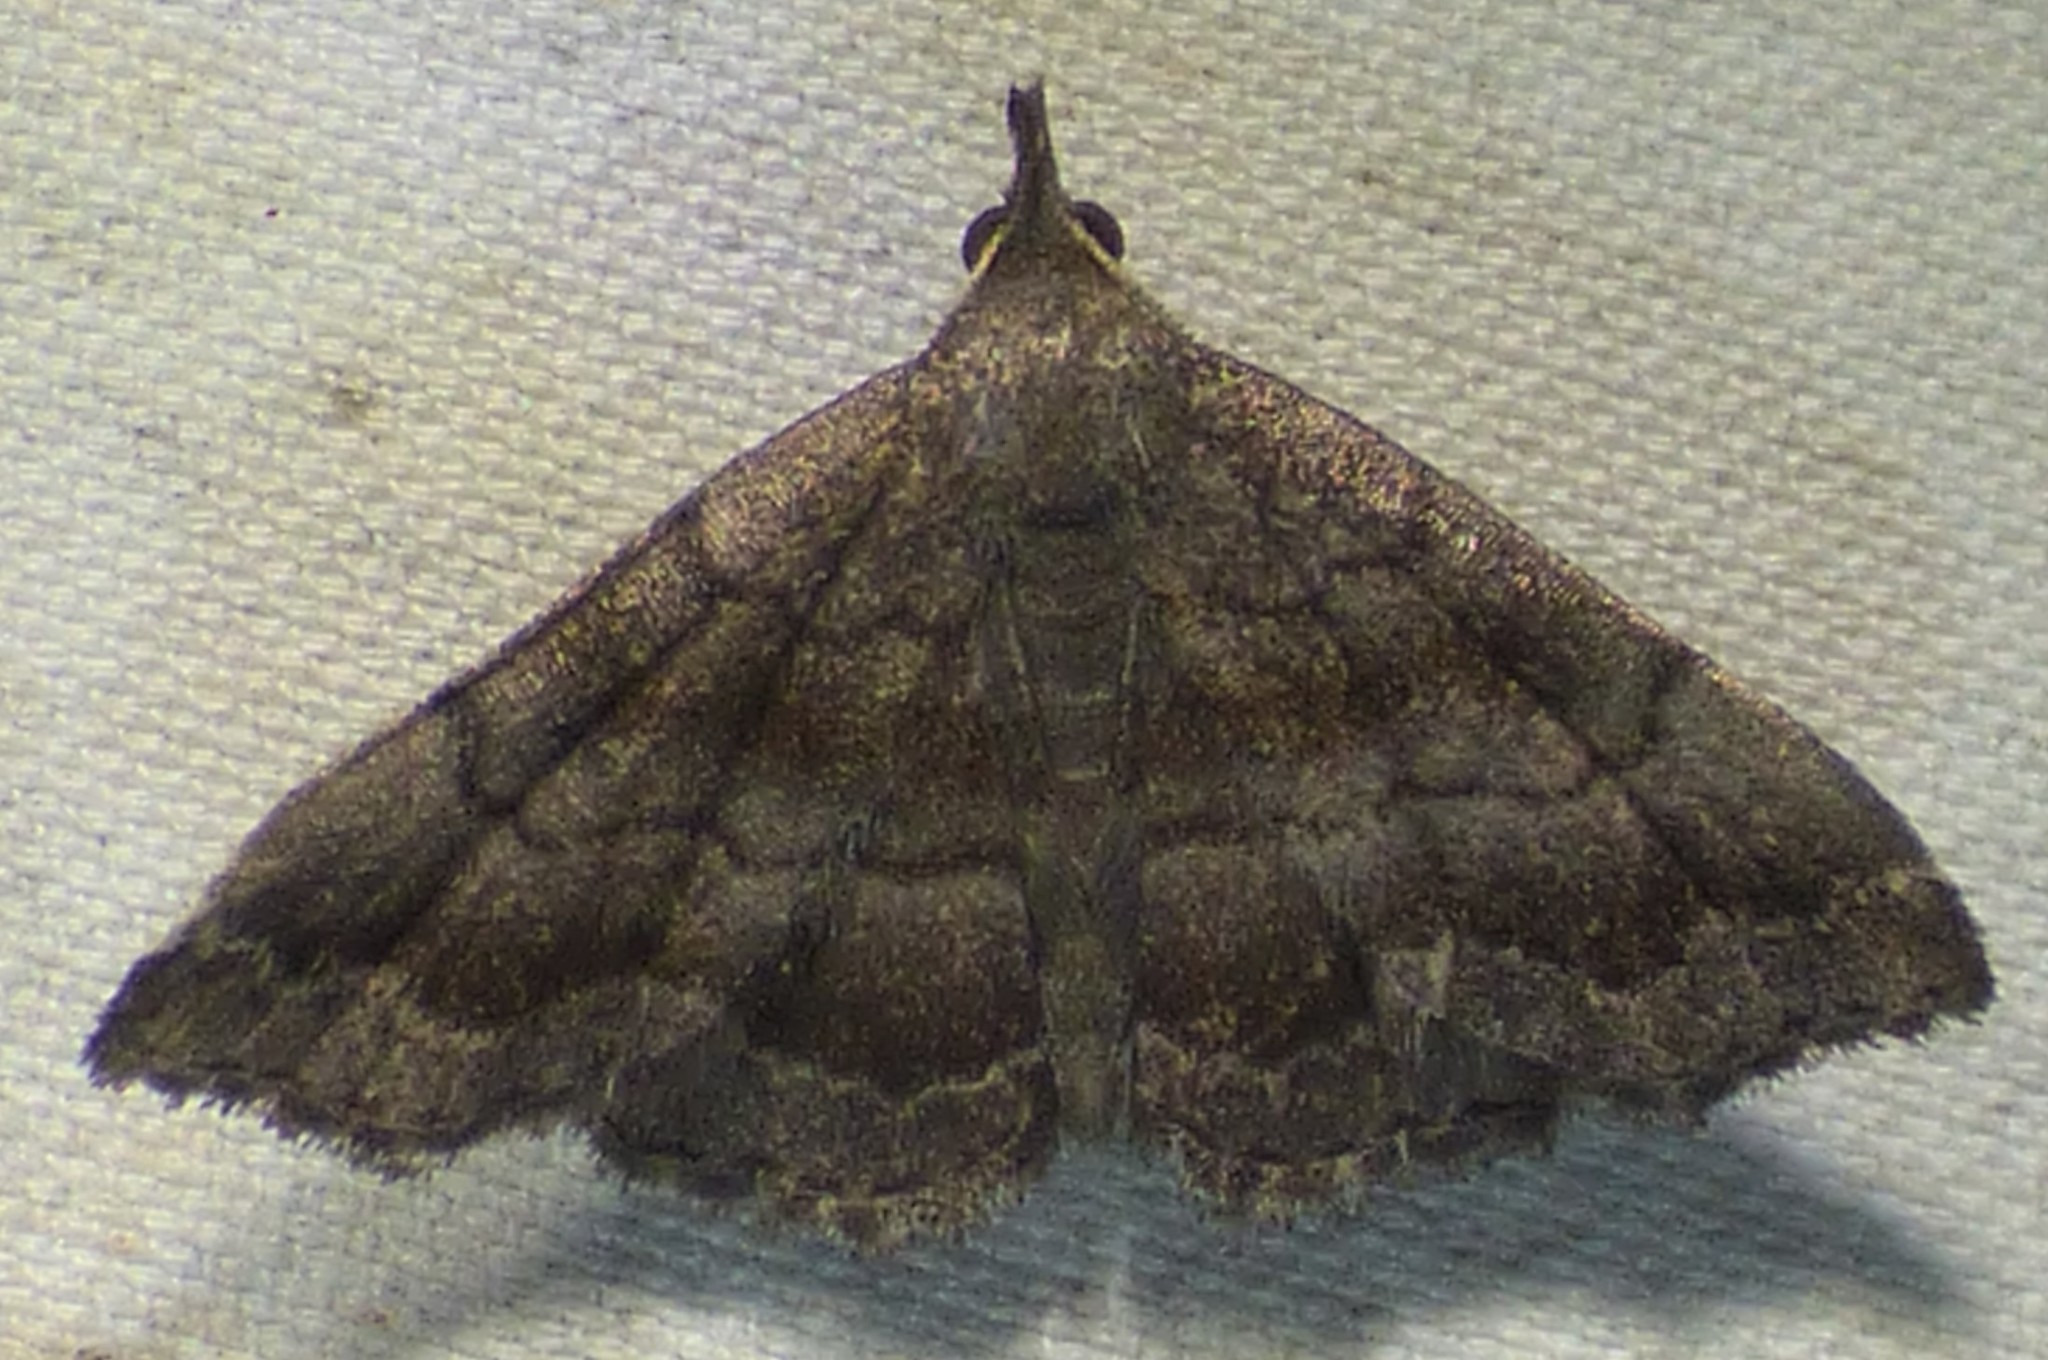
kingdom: Animalia
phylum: Arthropoda
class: Insecta
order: Lepidoptera
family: Erebidae
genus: Phalaenostola
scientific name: Phalaenostola larentioides
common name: Black-banded owlet
